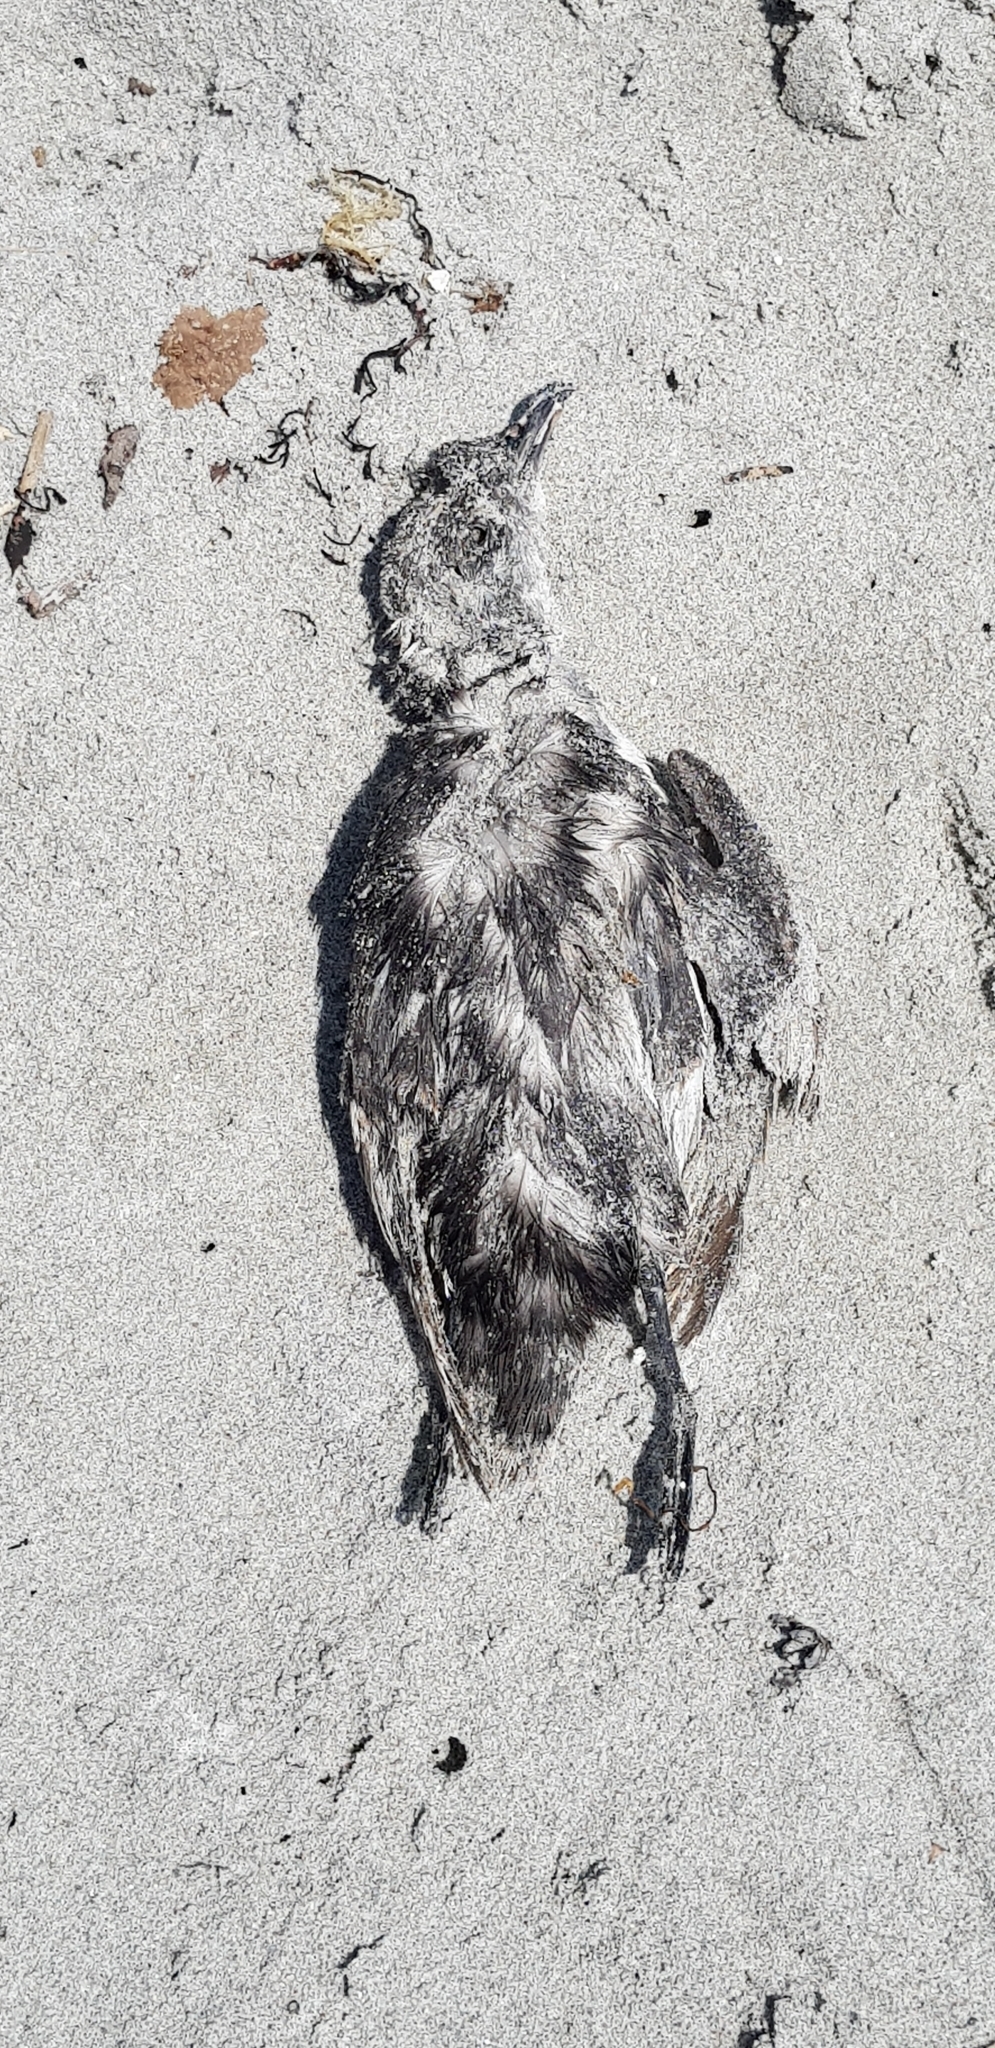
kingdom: Animalia
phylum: Chordata
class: Aves
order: Procellariiformes
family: Pelecanoididae
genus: Pelecanoides
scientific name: Pelecanoides urinatrix
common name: Common diving-petrel
